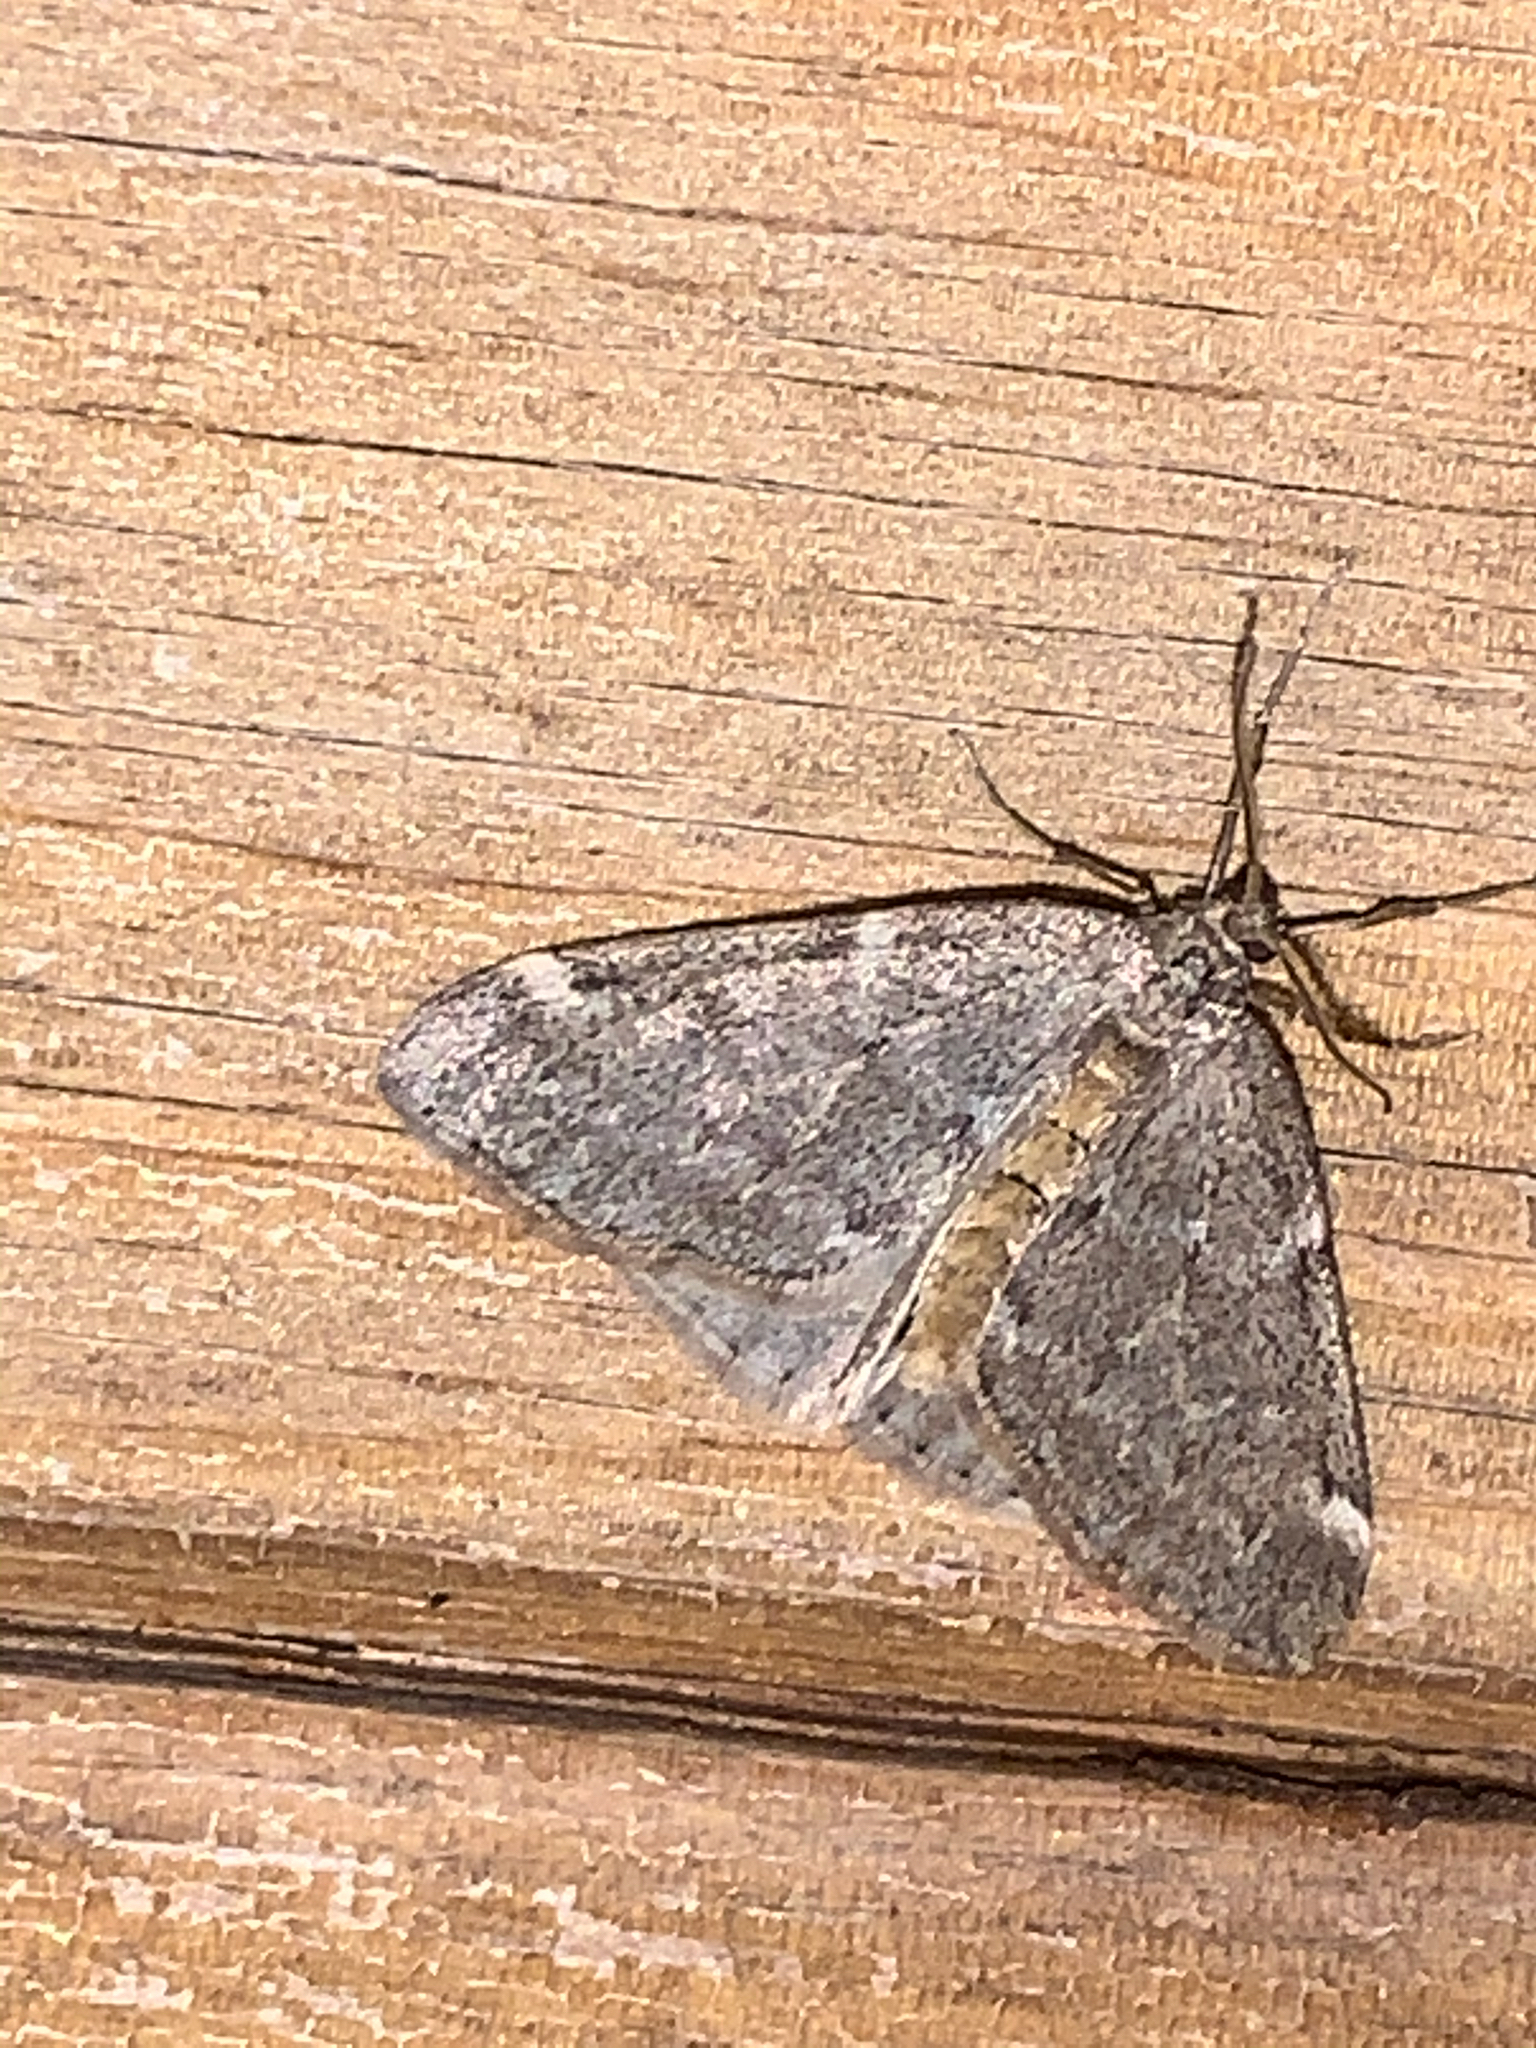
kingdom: Animalia
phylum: Arthropoda
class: Insecta
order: Lepidoptera
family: Geometridae
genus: Alsophila
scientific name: Alsophila pometaria
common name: Fall cankerworm
